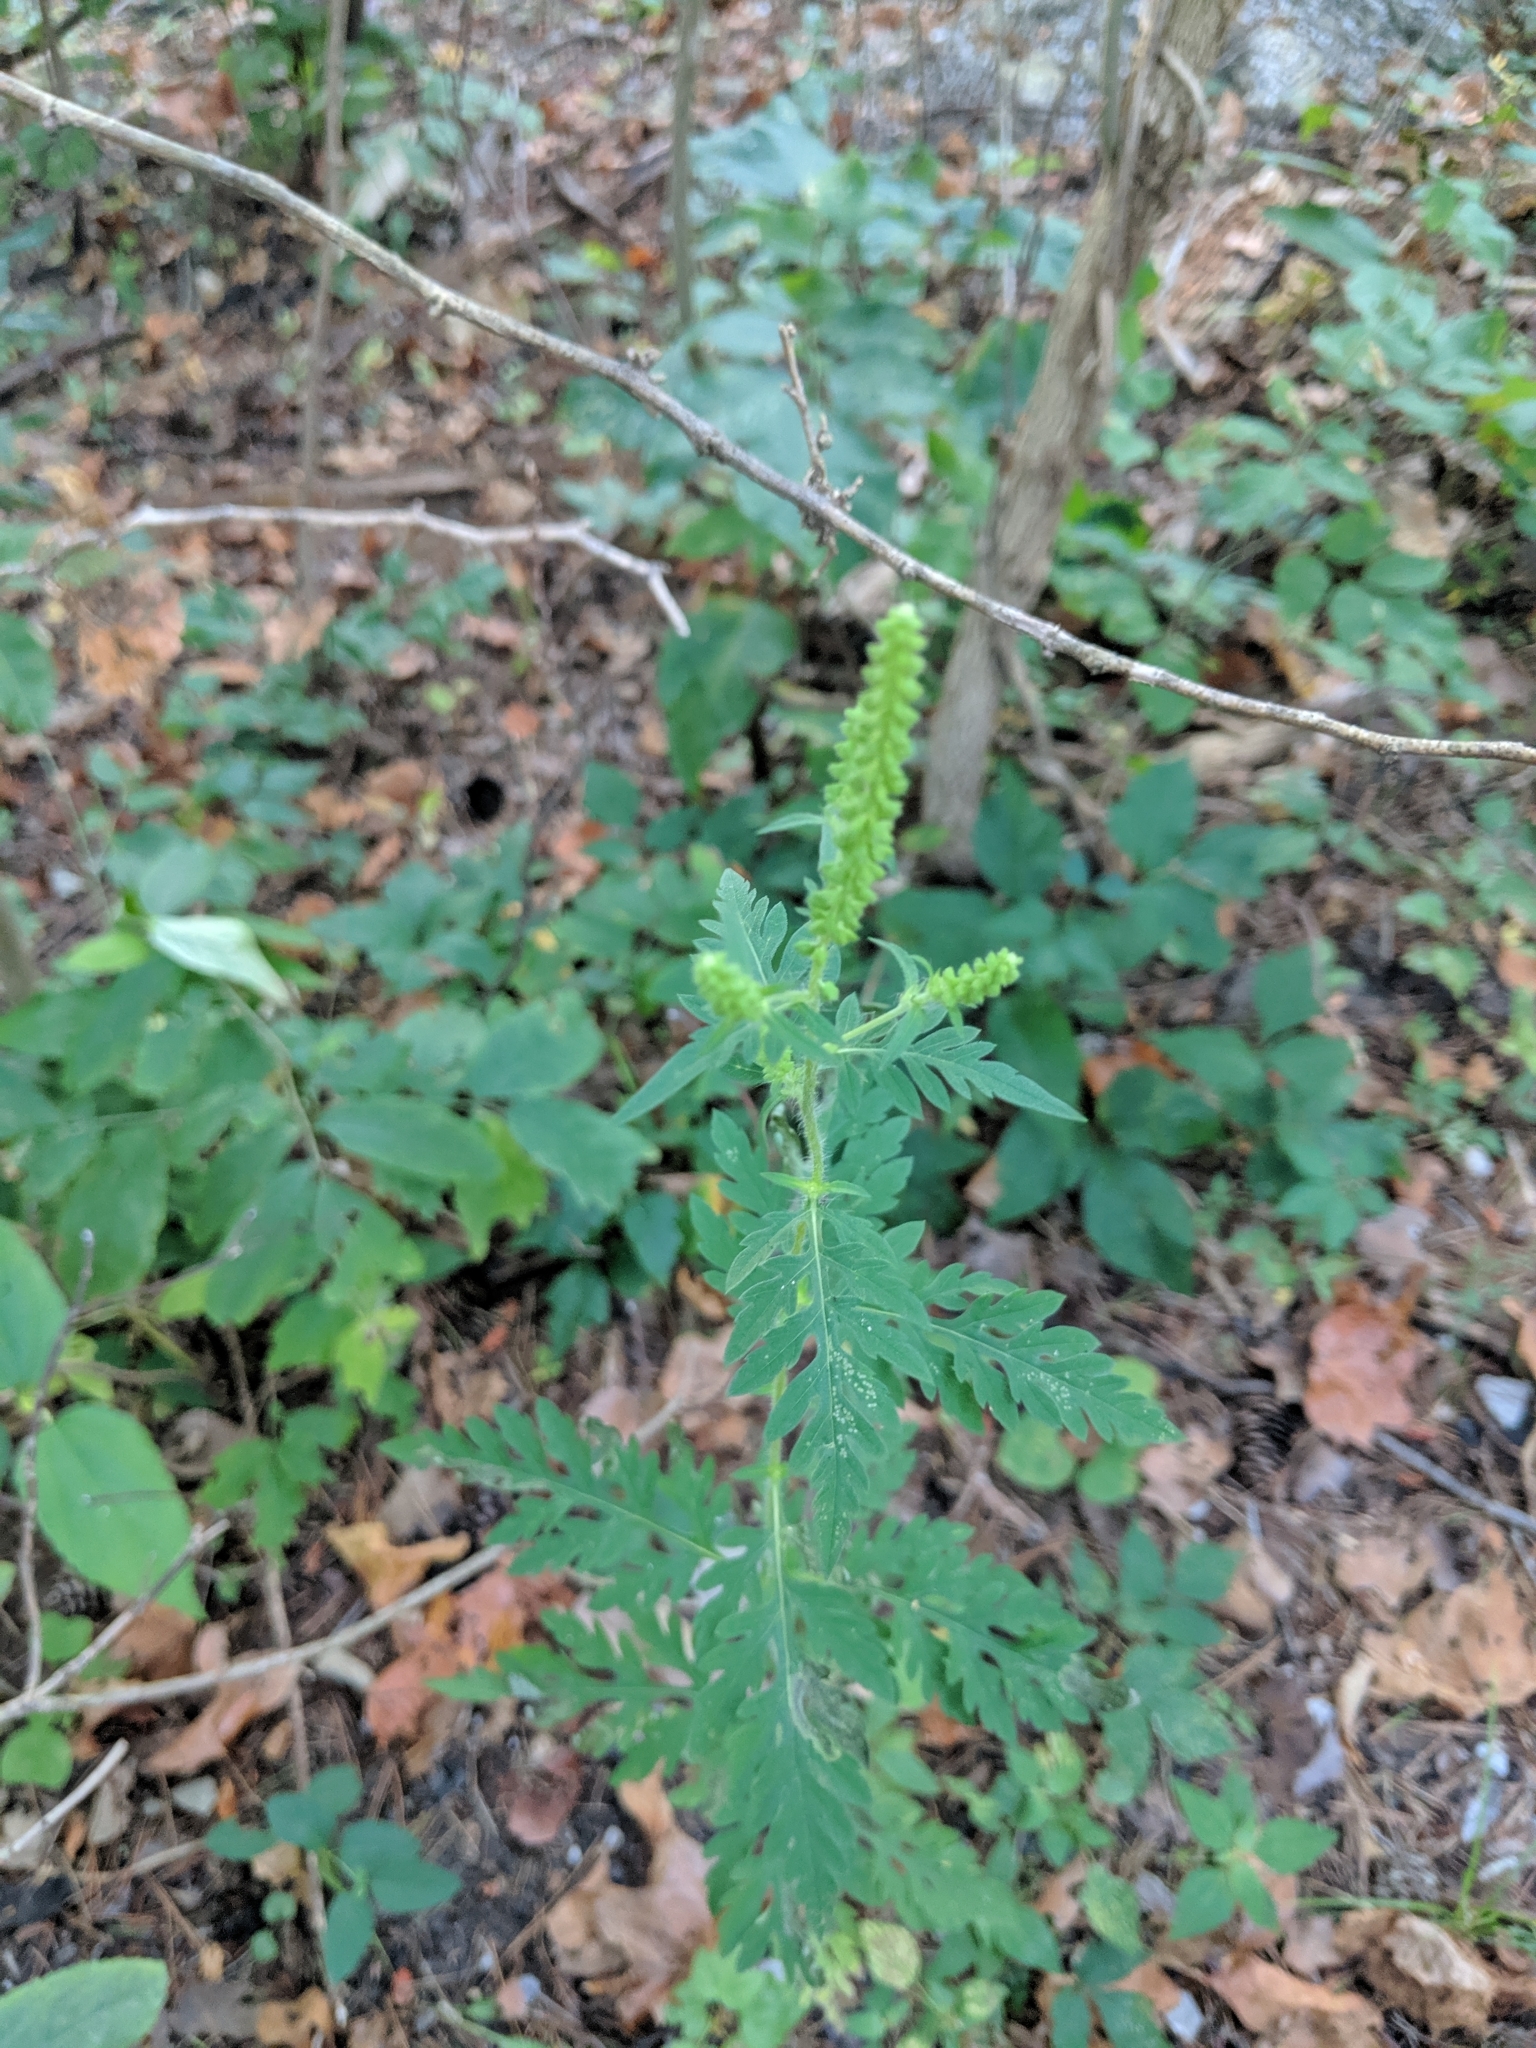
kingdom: Plantae
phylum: Tracheophyta
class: Magnoliopsida
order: Asterales
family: Asteraceae
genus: Ambrosia
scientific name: Ambrosia artemisiifolia
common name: Annual ragweed
